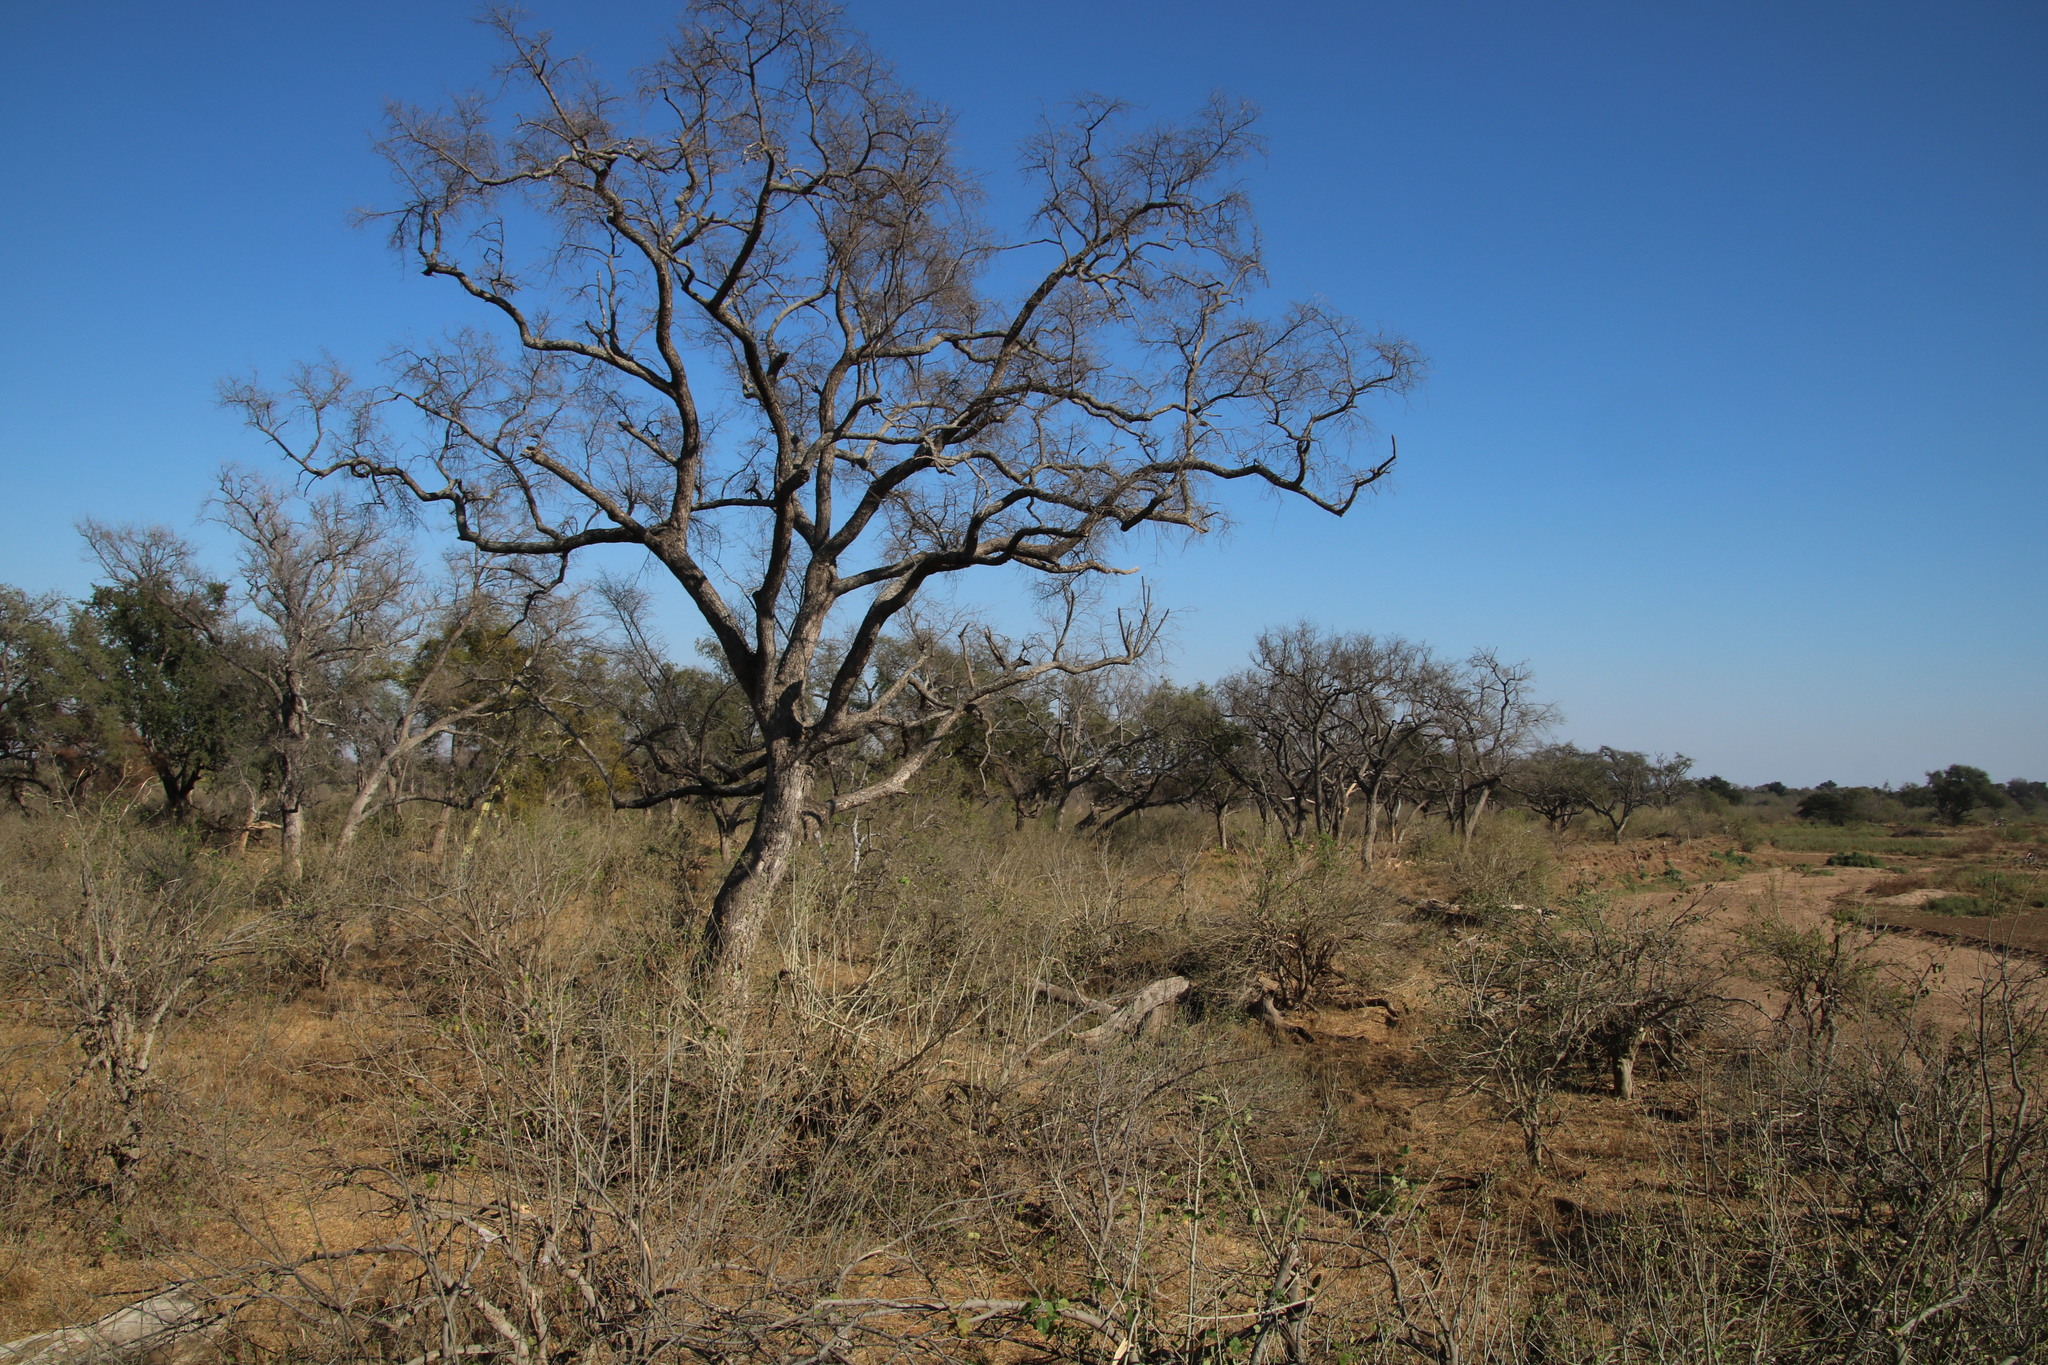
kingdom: Plantae
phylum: Tracheophyta
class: Magnoliopsida
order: Myrtales
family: Combretaceae
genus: Combretum
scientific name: Combretum imberbe
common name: Leadwood
